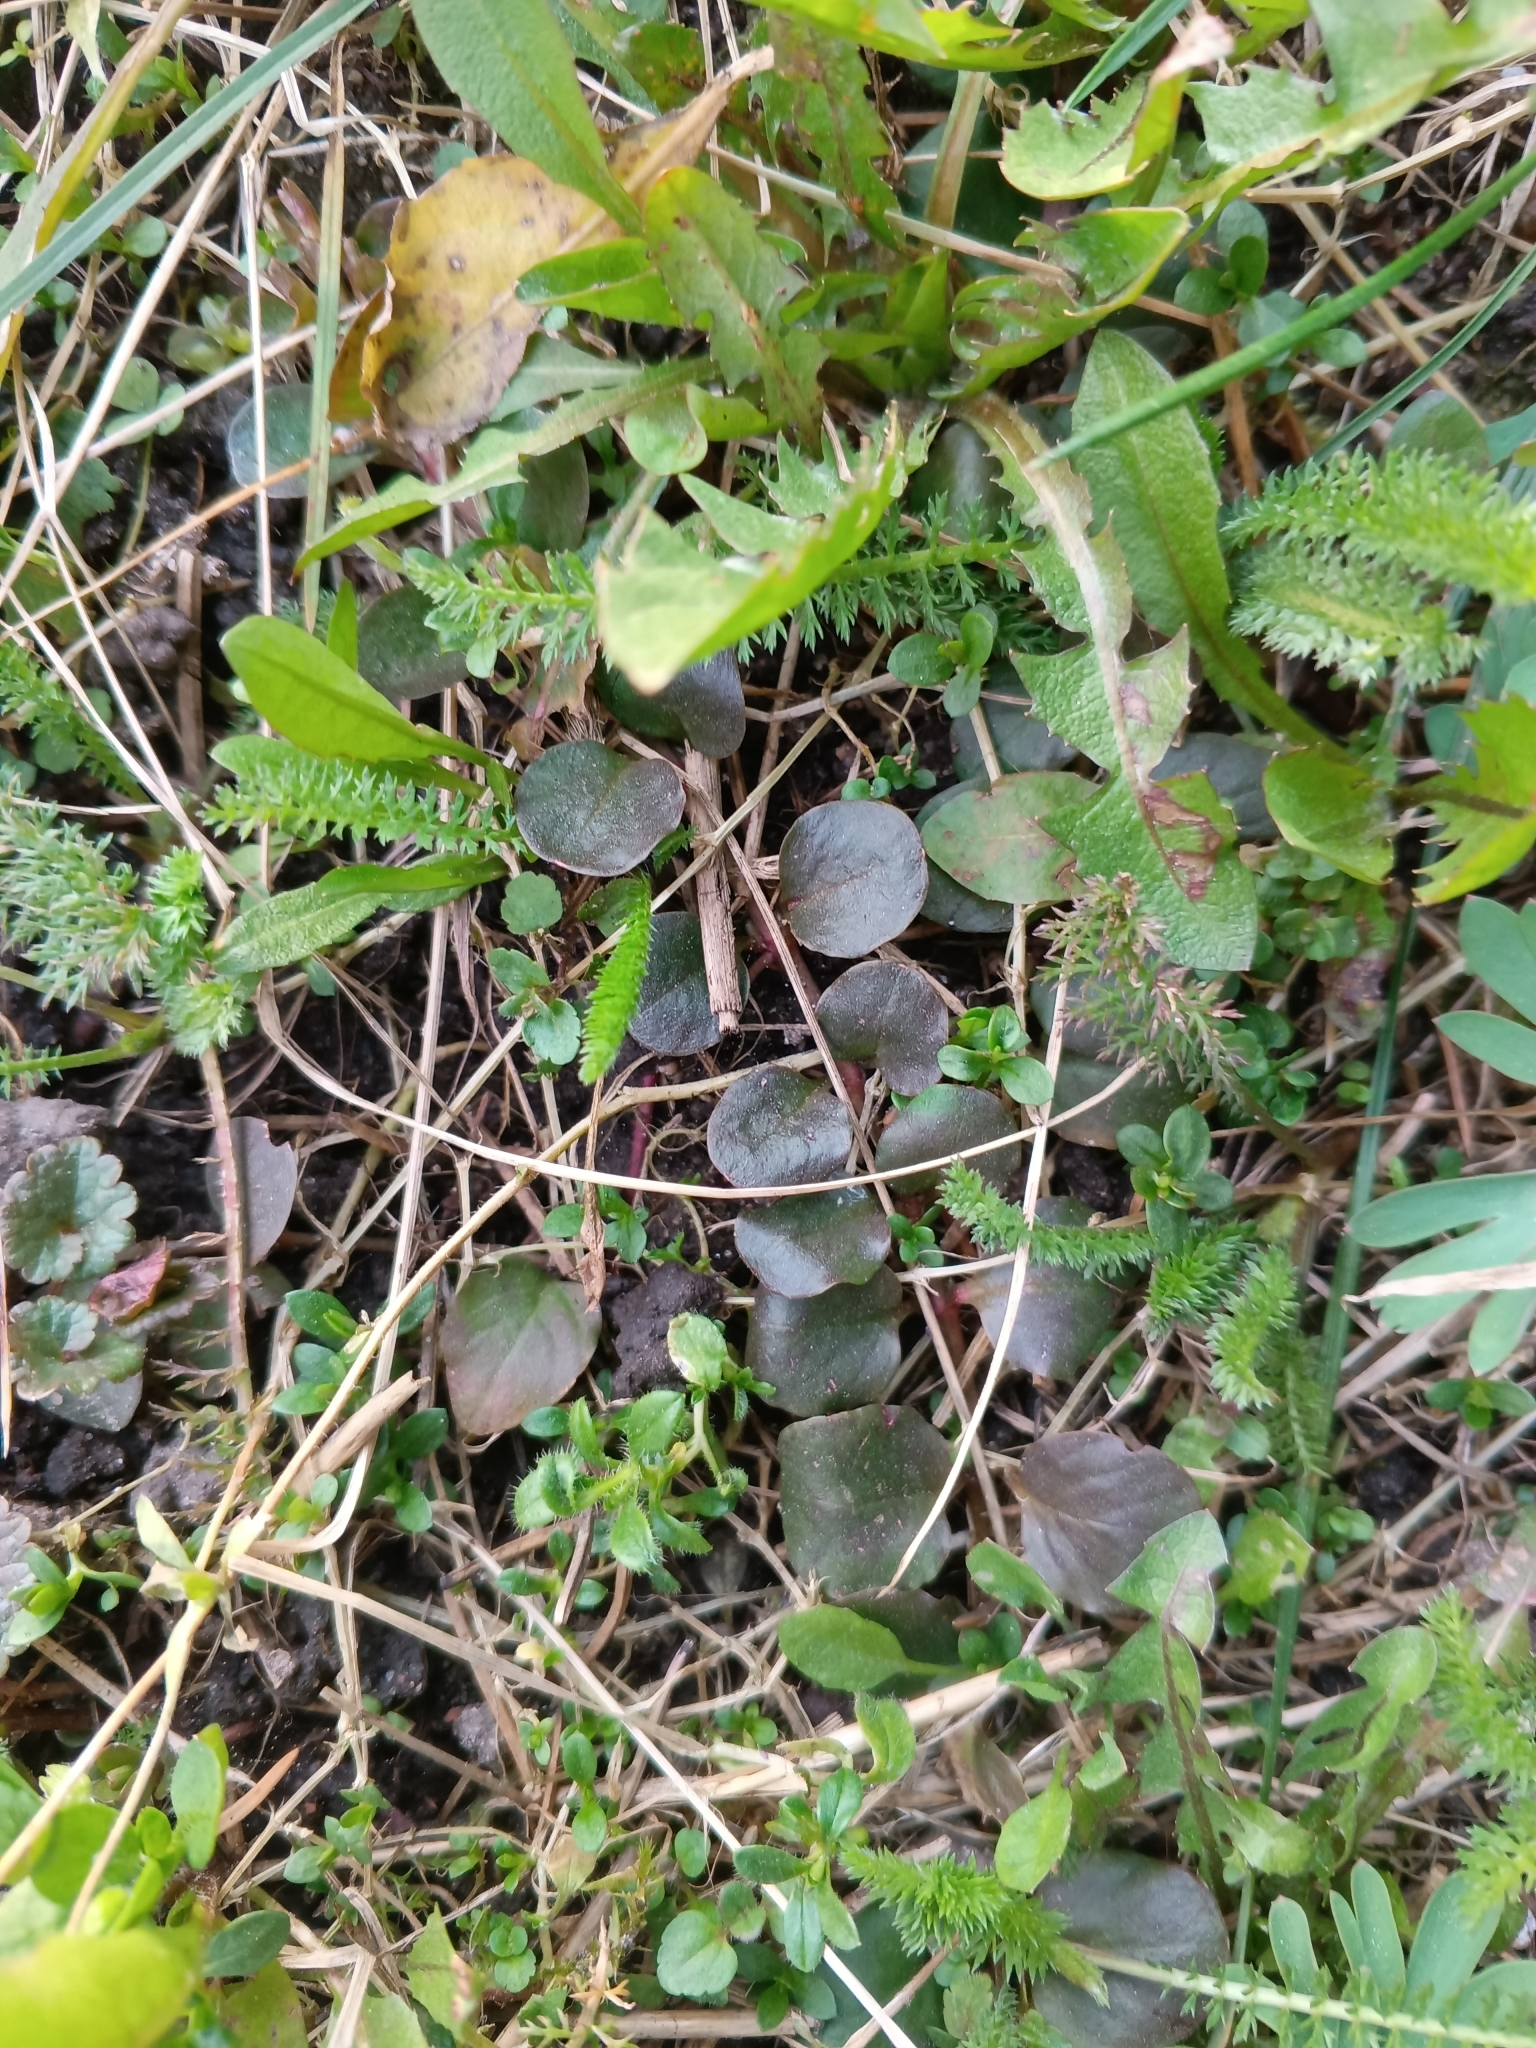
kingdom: Plantae
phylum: Tracheophyta
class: Magnoliopsida
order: Ericales
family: Primulaceae
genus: Lysimachia
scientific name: Lysimachia nummularia
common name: Moneywort
